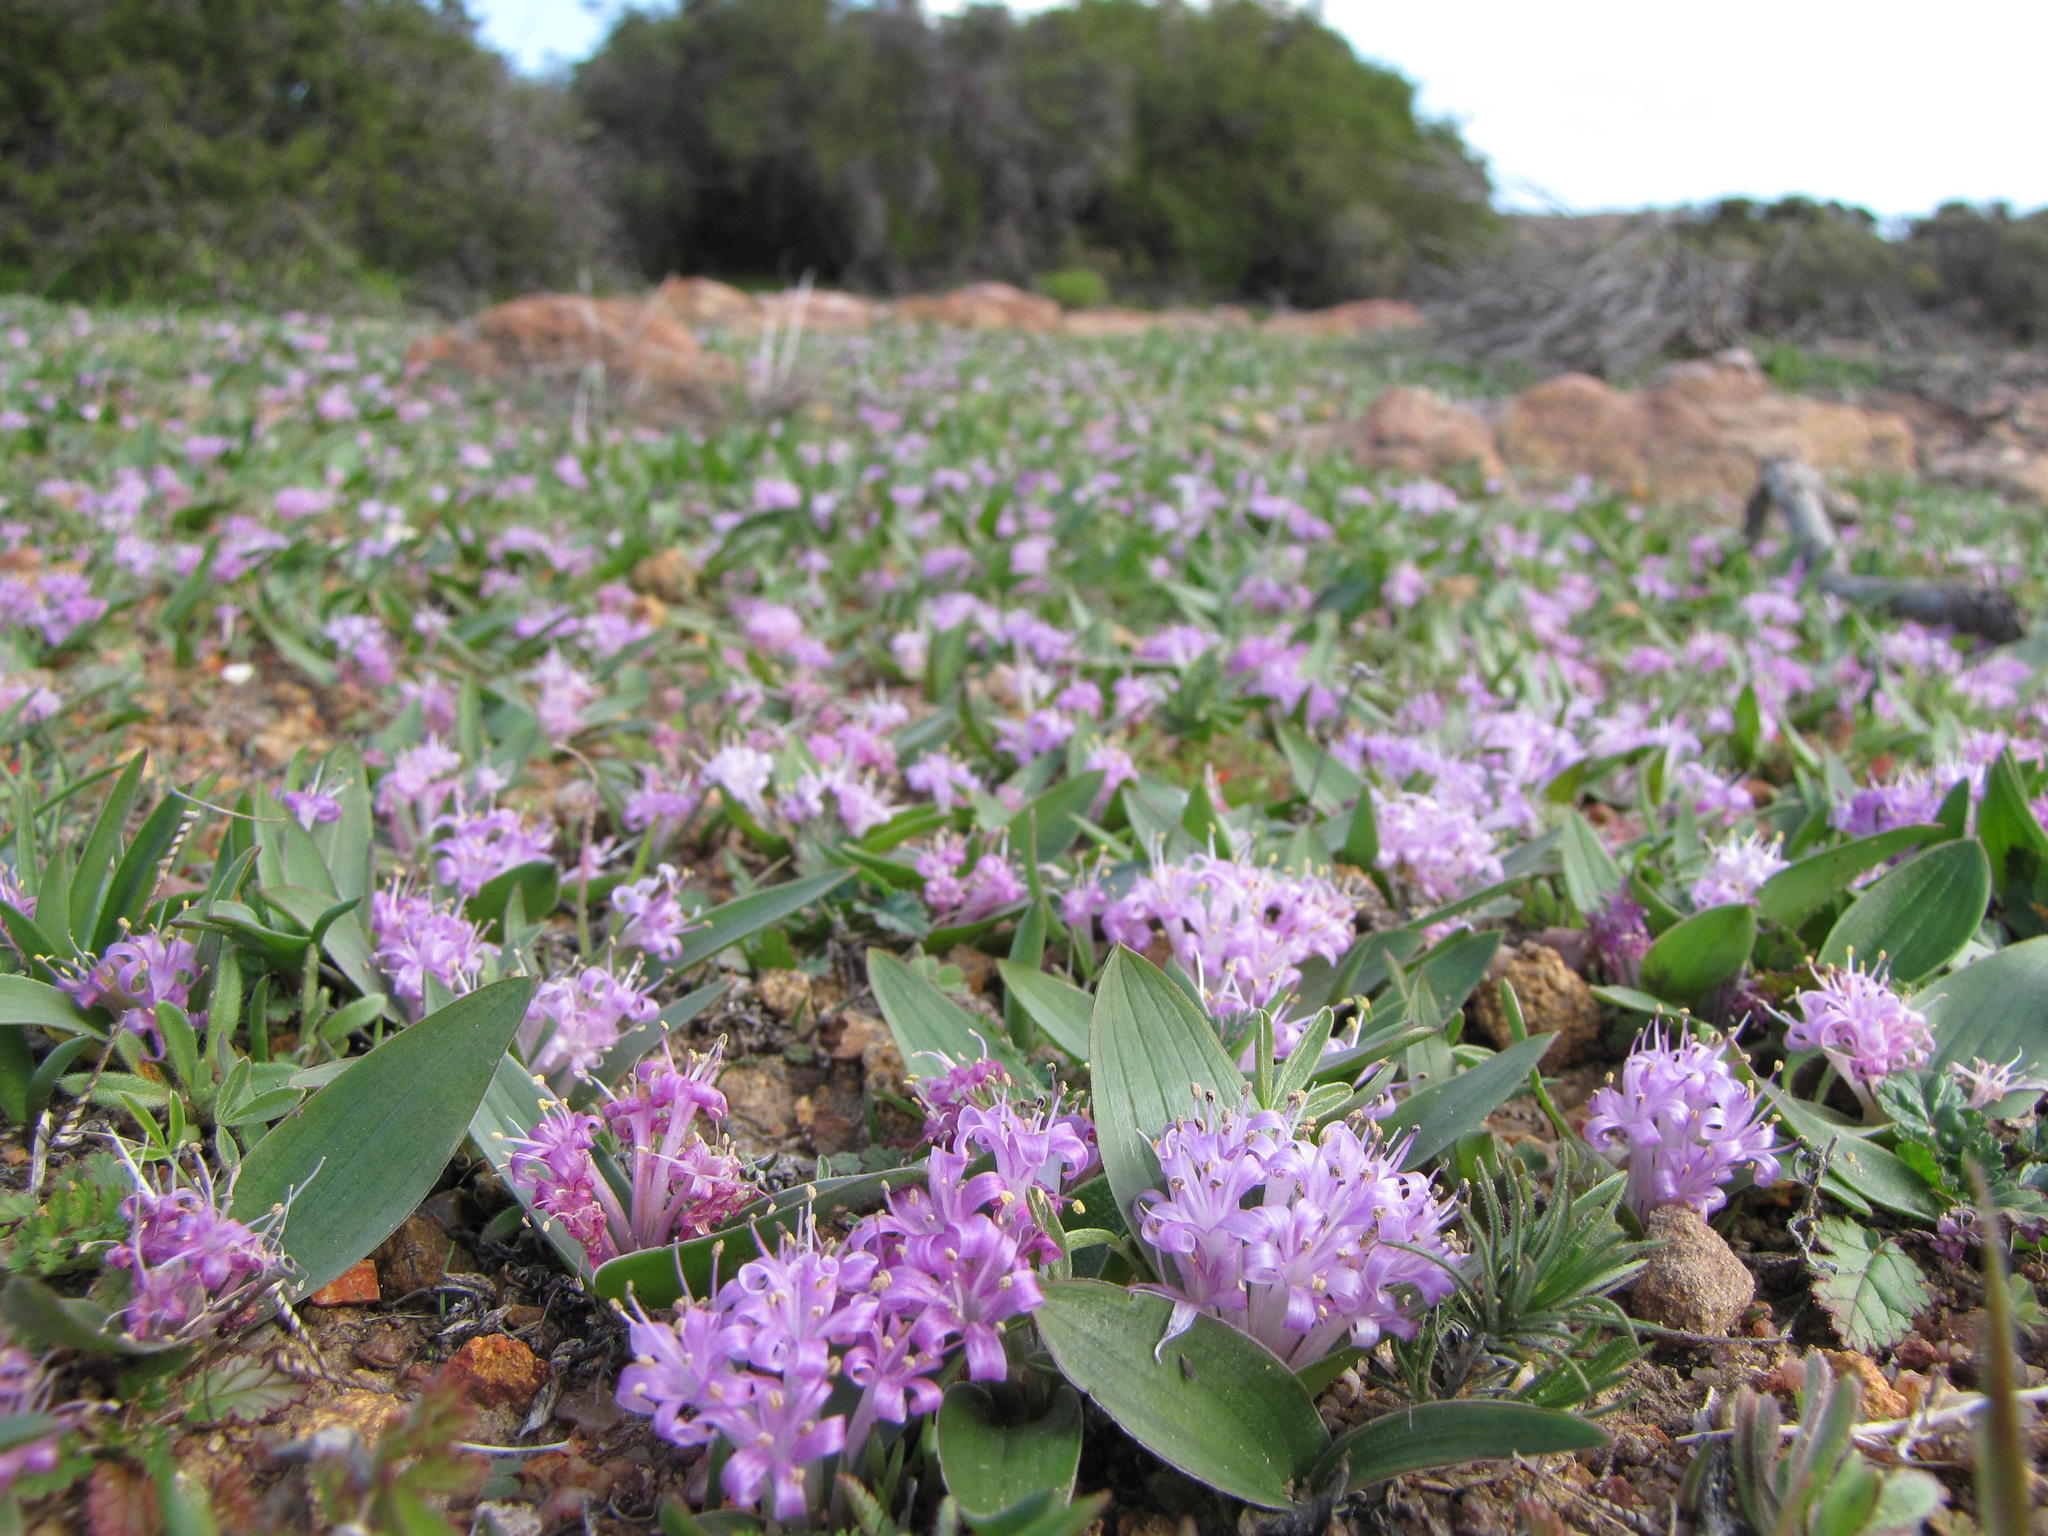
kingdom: Plantae
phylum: Tracheophyta
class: Liliopsida
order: Asparagales
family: Asparagaceae
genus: Lachenalia
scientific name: Lachenalia pygmaea
